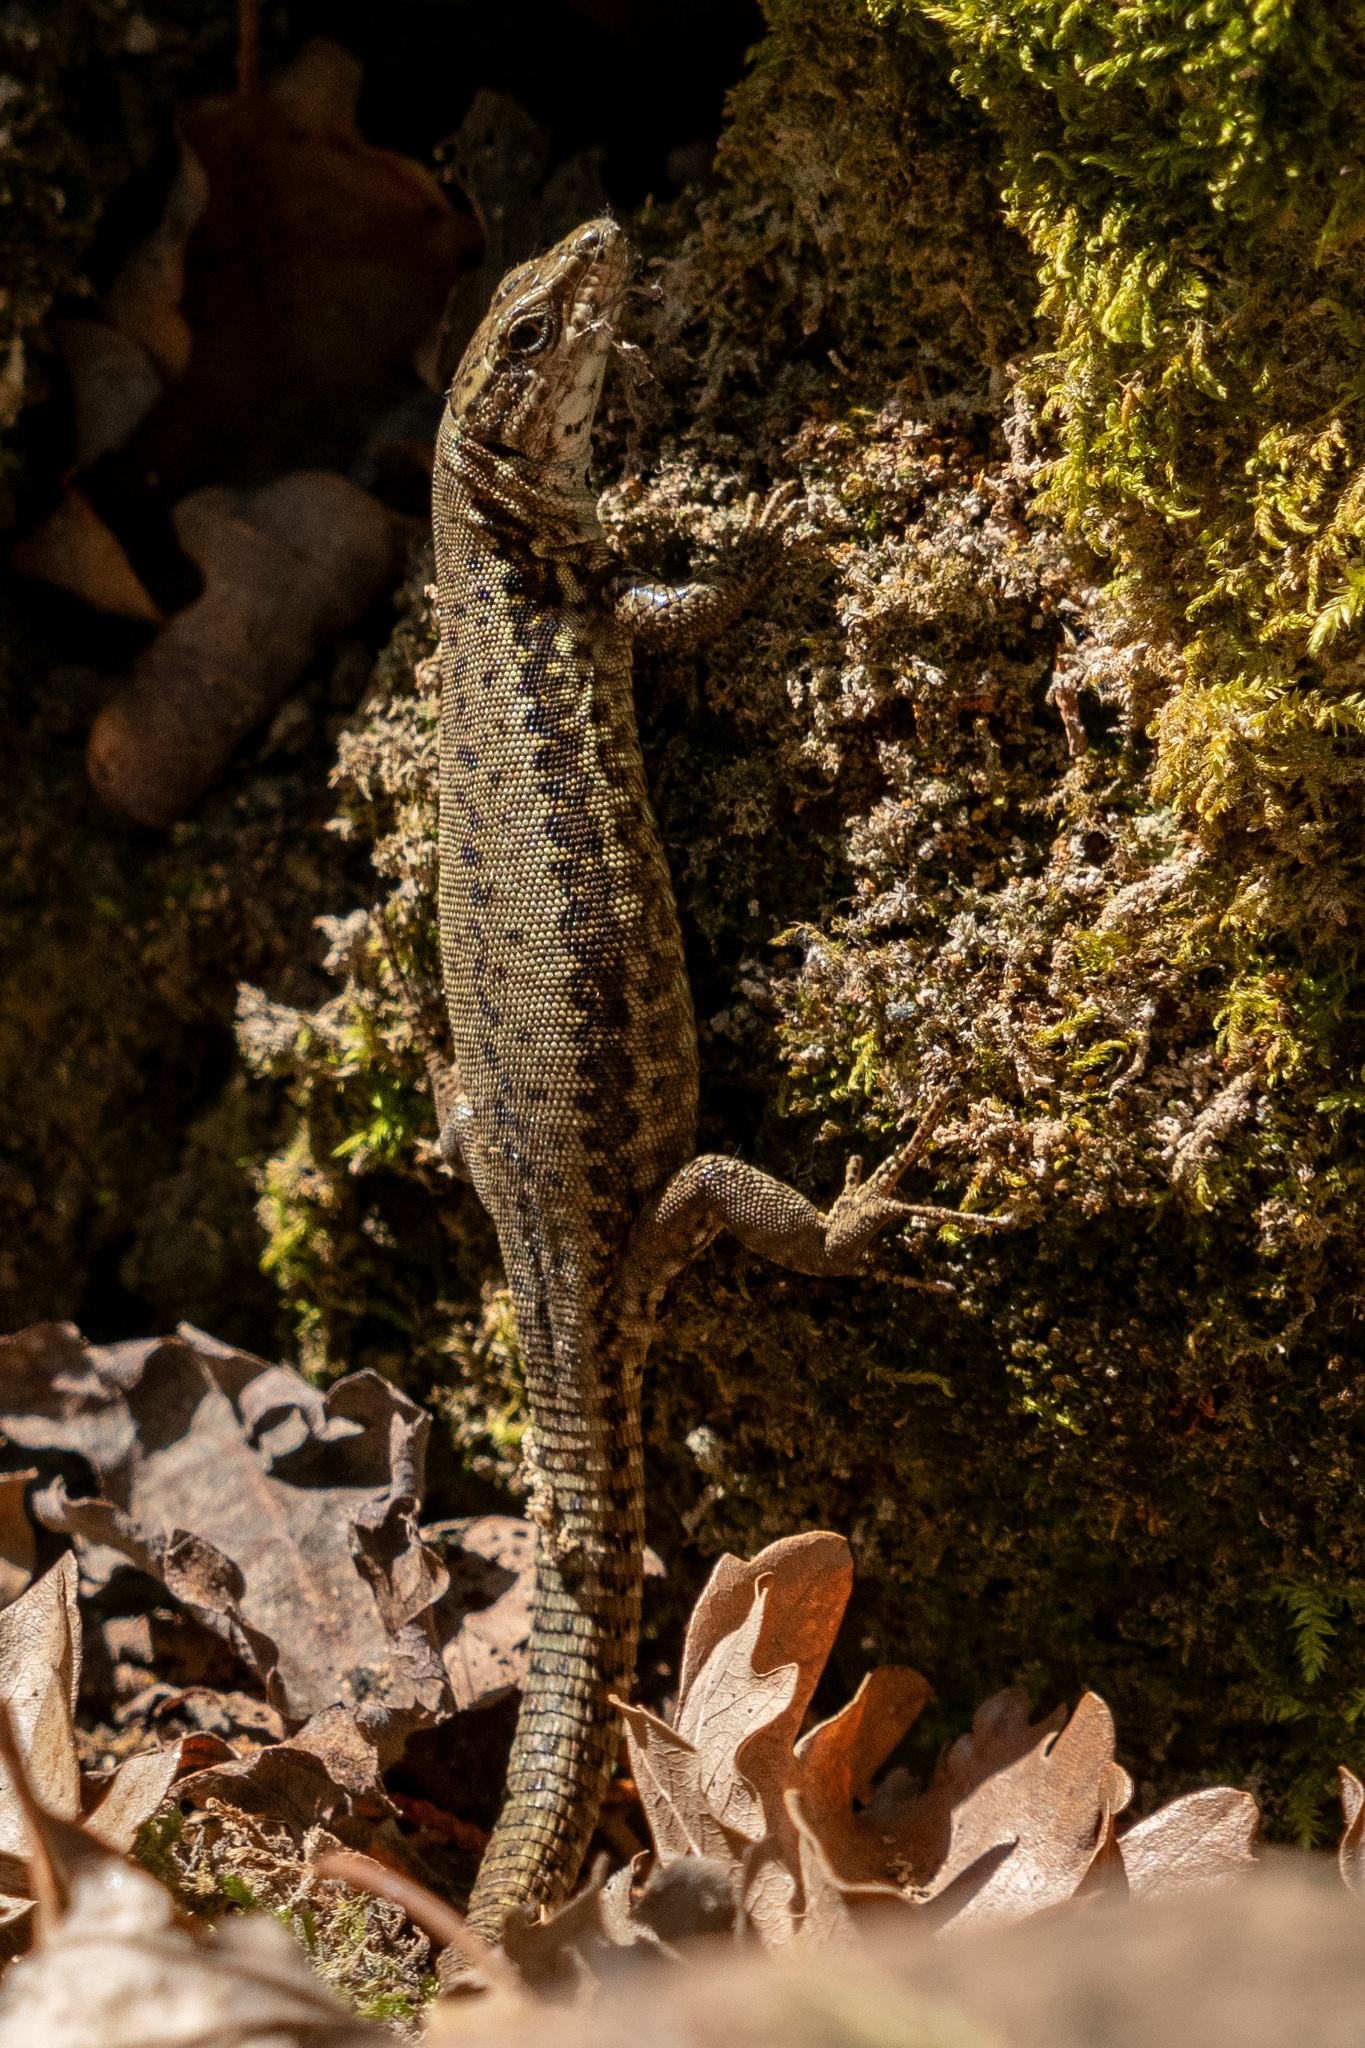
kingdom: Animalia
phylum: Chordata
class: Squamata
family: Lacertidae
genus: Podarcis
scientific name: Podarcis muralis
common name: Common wall lizard
